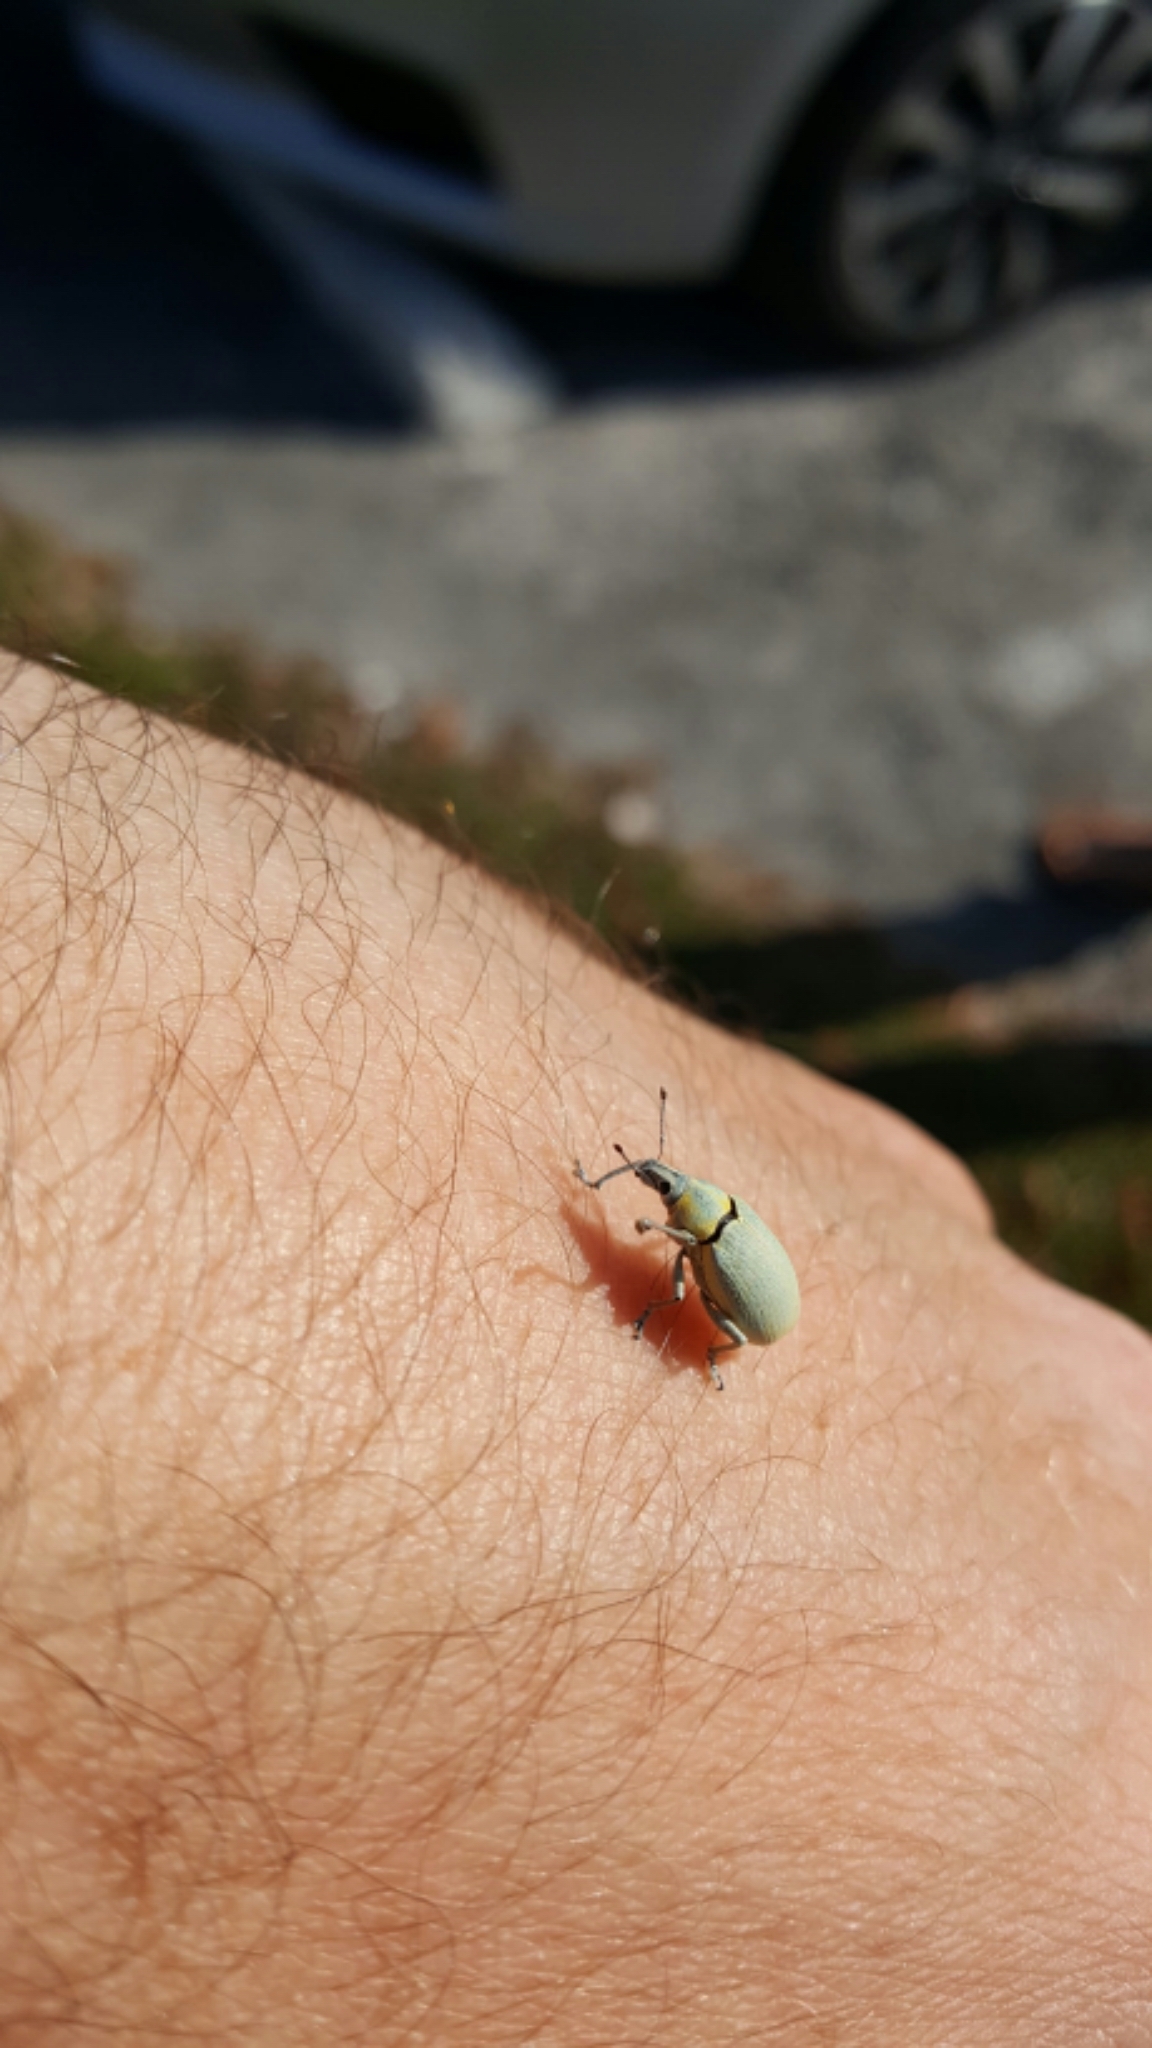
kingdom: Animalia
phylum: Arthropoda
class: Insecta
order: Coleoptera
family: Curculionidae
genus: Pachnaeus
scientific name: Pachnaeus litus
